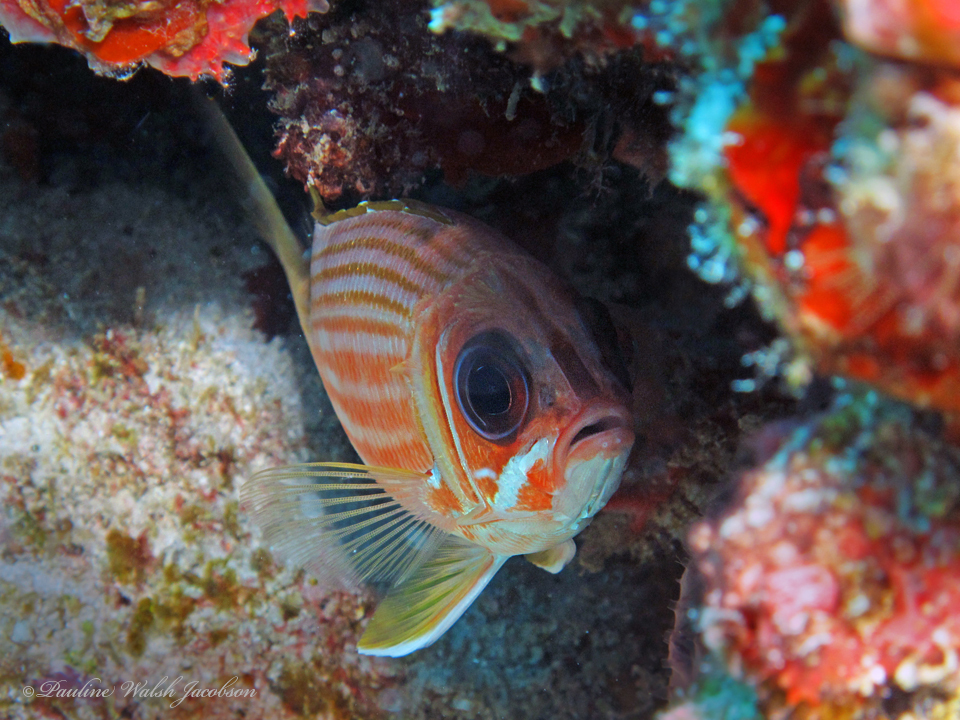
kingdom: Animalia
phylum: Chordata
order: Beryciformes
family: Holocentridae
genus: Holocentrus
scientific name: Holocentrus rufus
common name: Longspine squirrelfish
